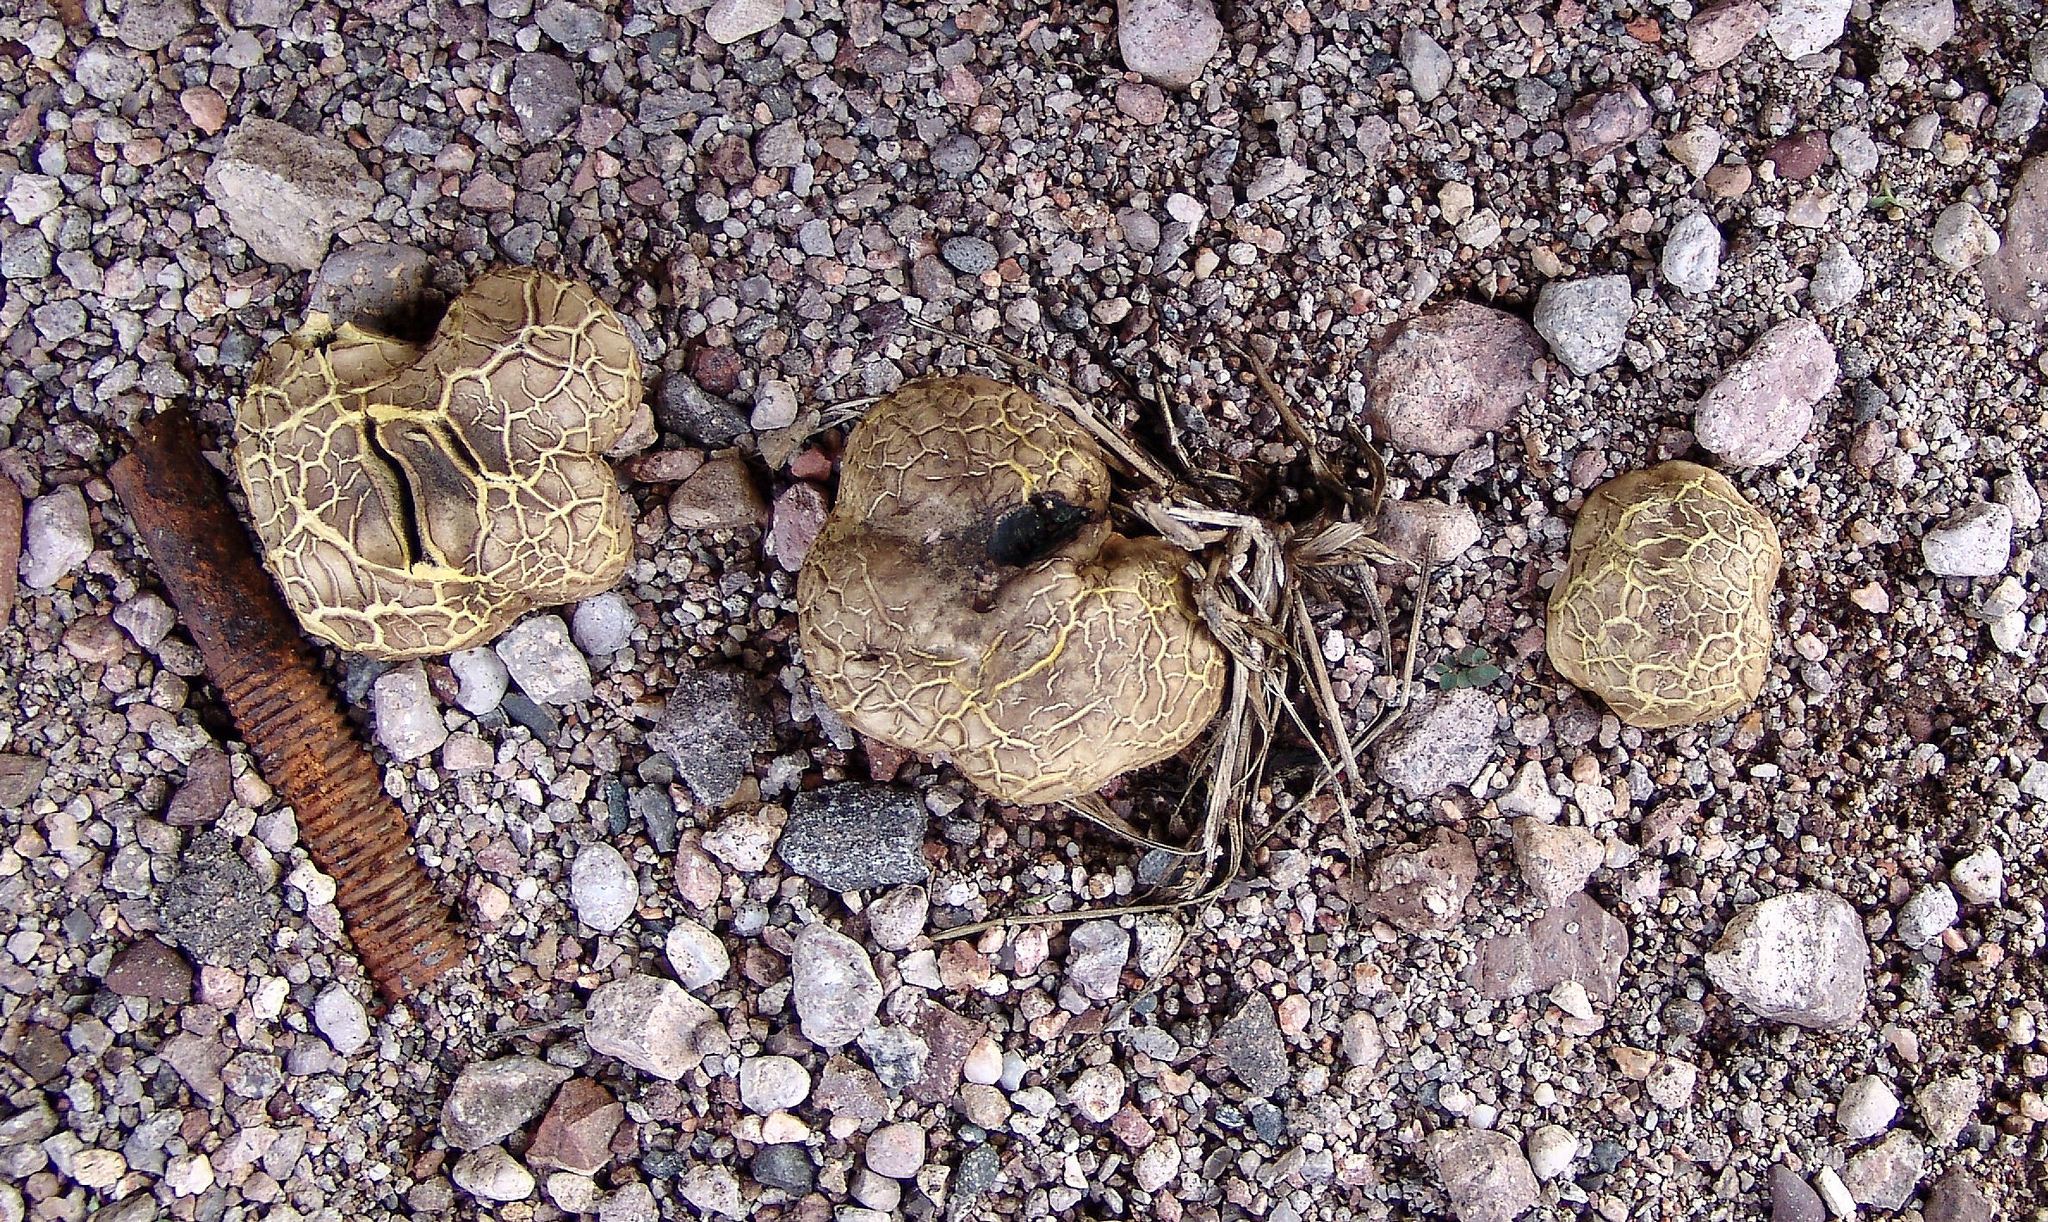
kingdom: Fungi
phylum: Basidiomycota
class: Agaricomycetes
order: Boletales
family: Sclerodermataceae
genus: Scleroderma
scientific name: Scleroderma texense
